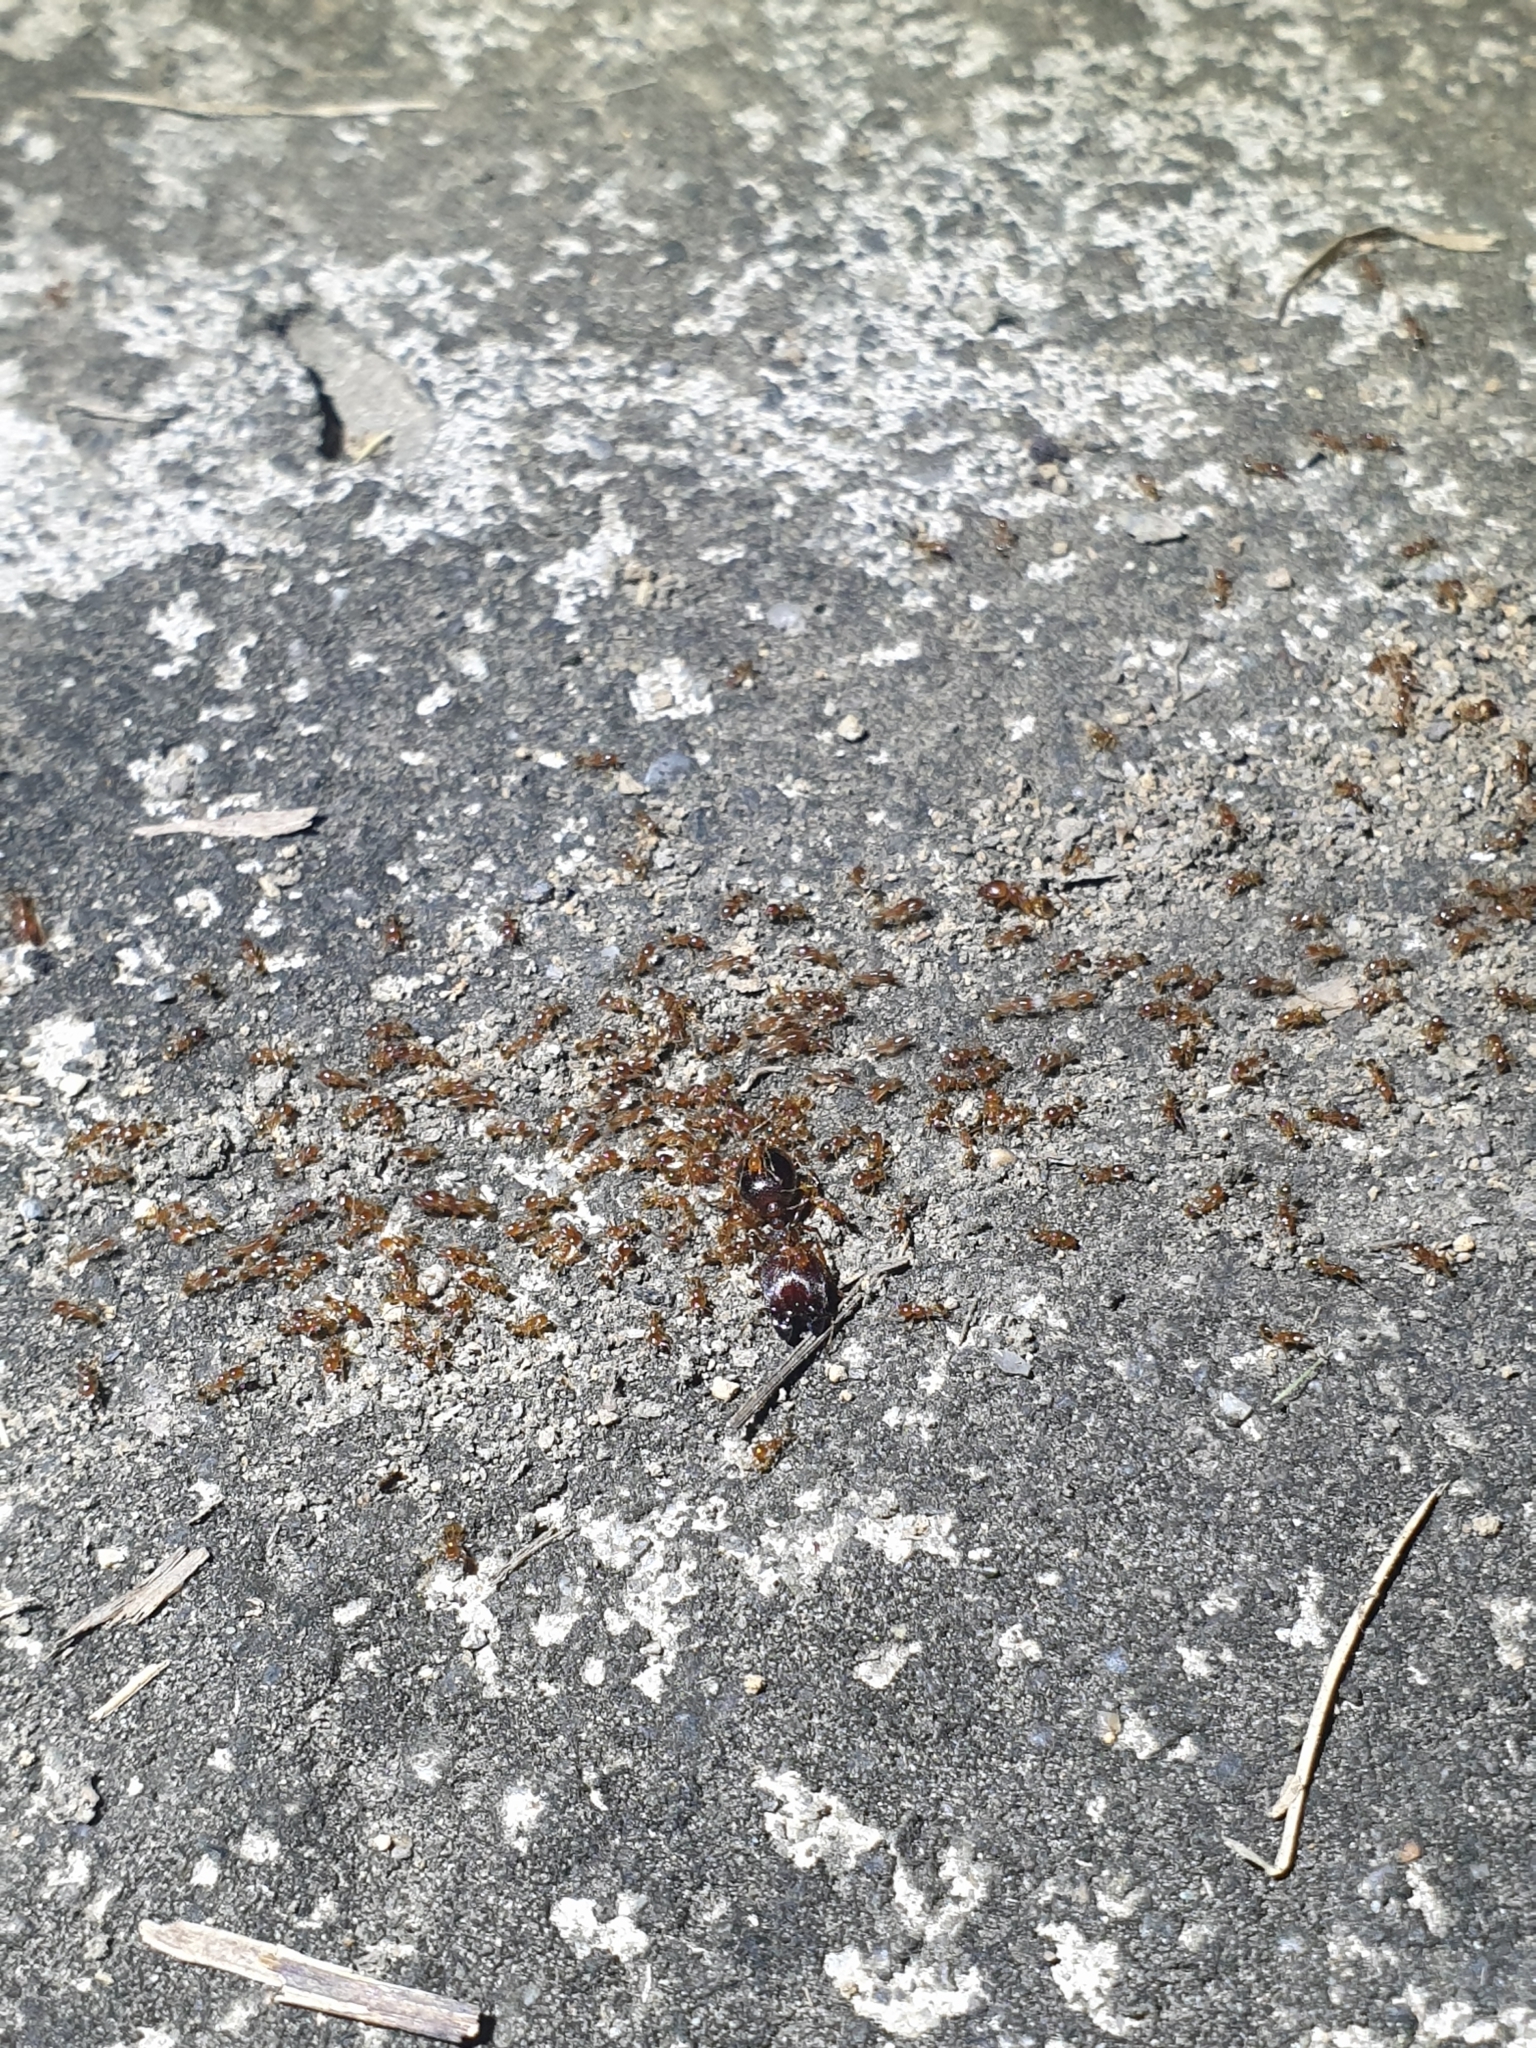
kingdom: Animalia
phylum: Arthropoda
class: Insecta
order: Hymenoptera
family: Formicidae
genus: Carebara
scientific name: Carebara affinis
